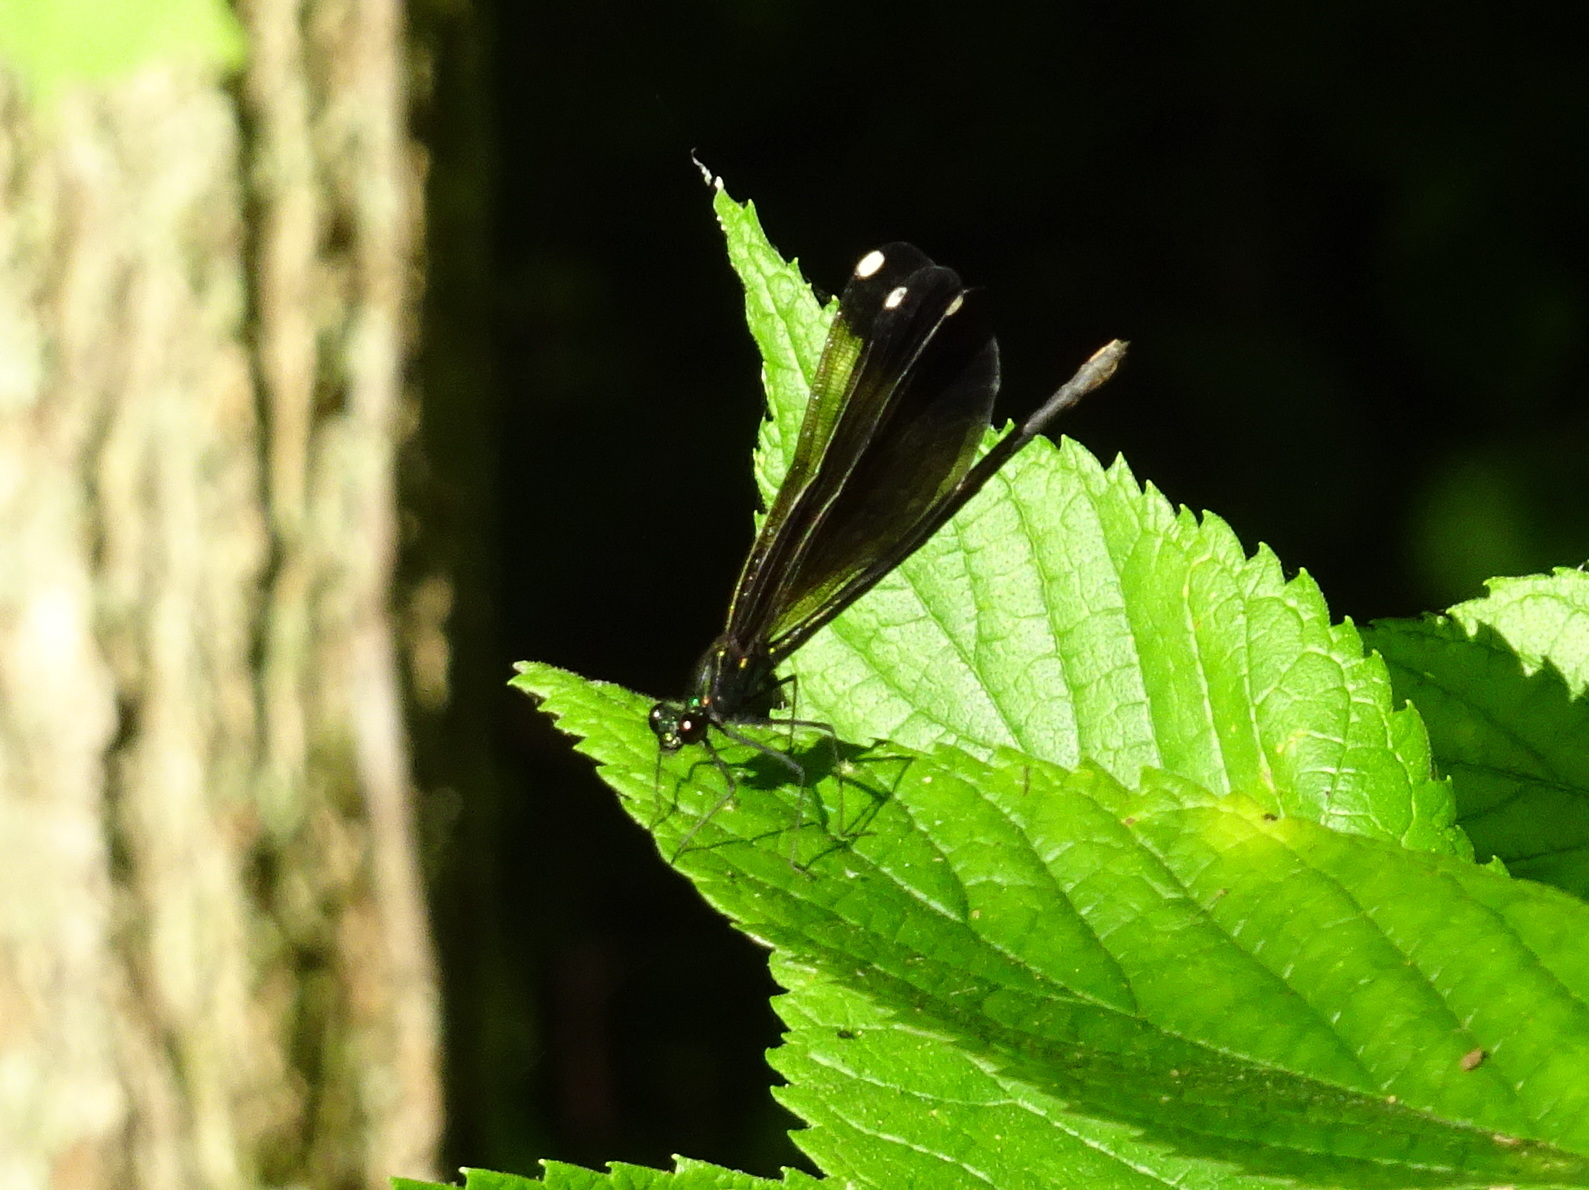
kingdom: Animalia
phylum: Arthropoda
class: Insecta
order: Odonata
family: Calopterygidae
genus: Calopteryx
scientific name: Calopteryx maculata
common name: Ebony jewelwing
